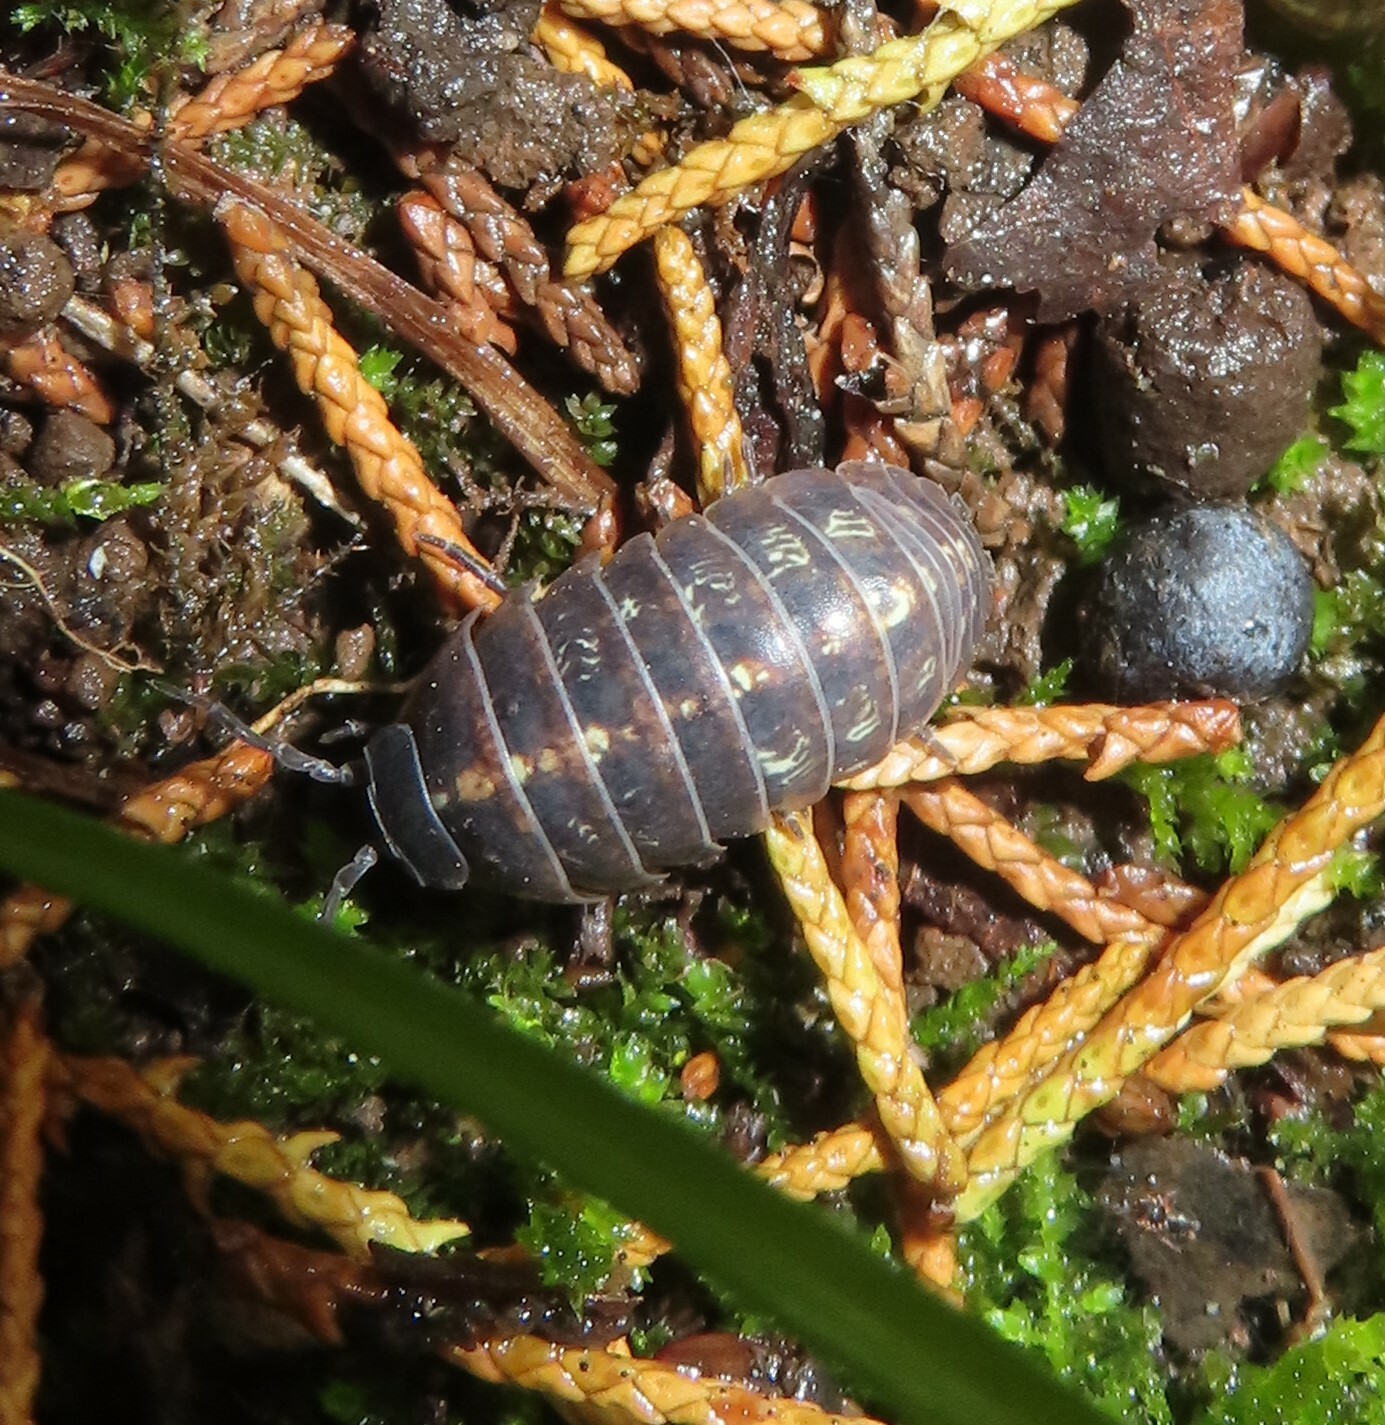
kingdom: Animalia
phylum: Arthropoda
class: Malacostraca
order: Isopoda
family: Armadillidiidae
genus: Armadillidium
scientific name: Armadillidium vulgare
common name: Common pill woodlouse
